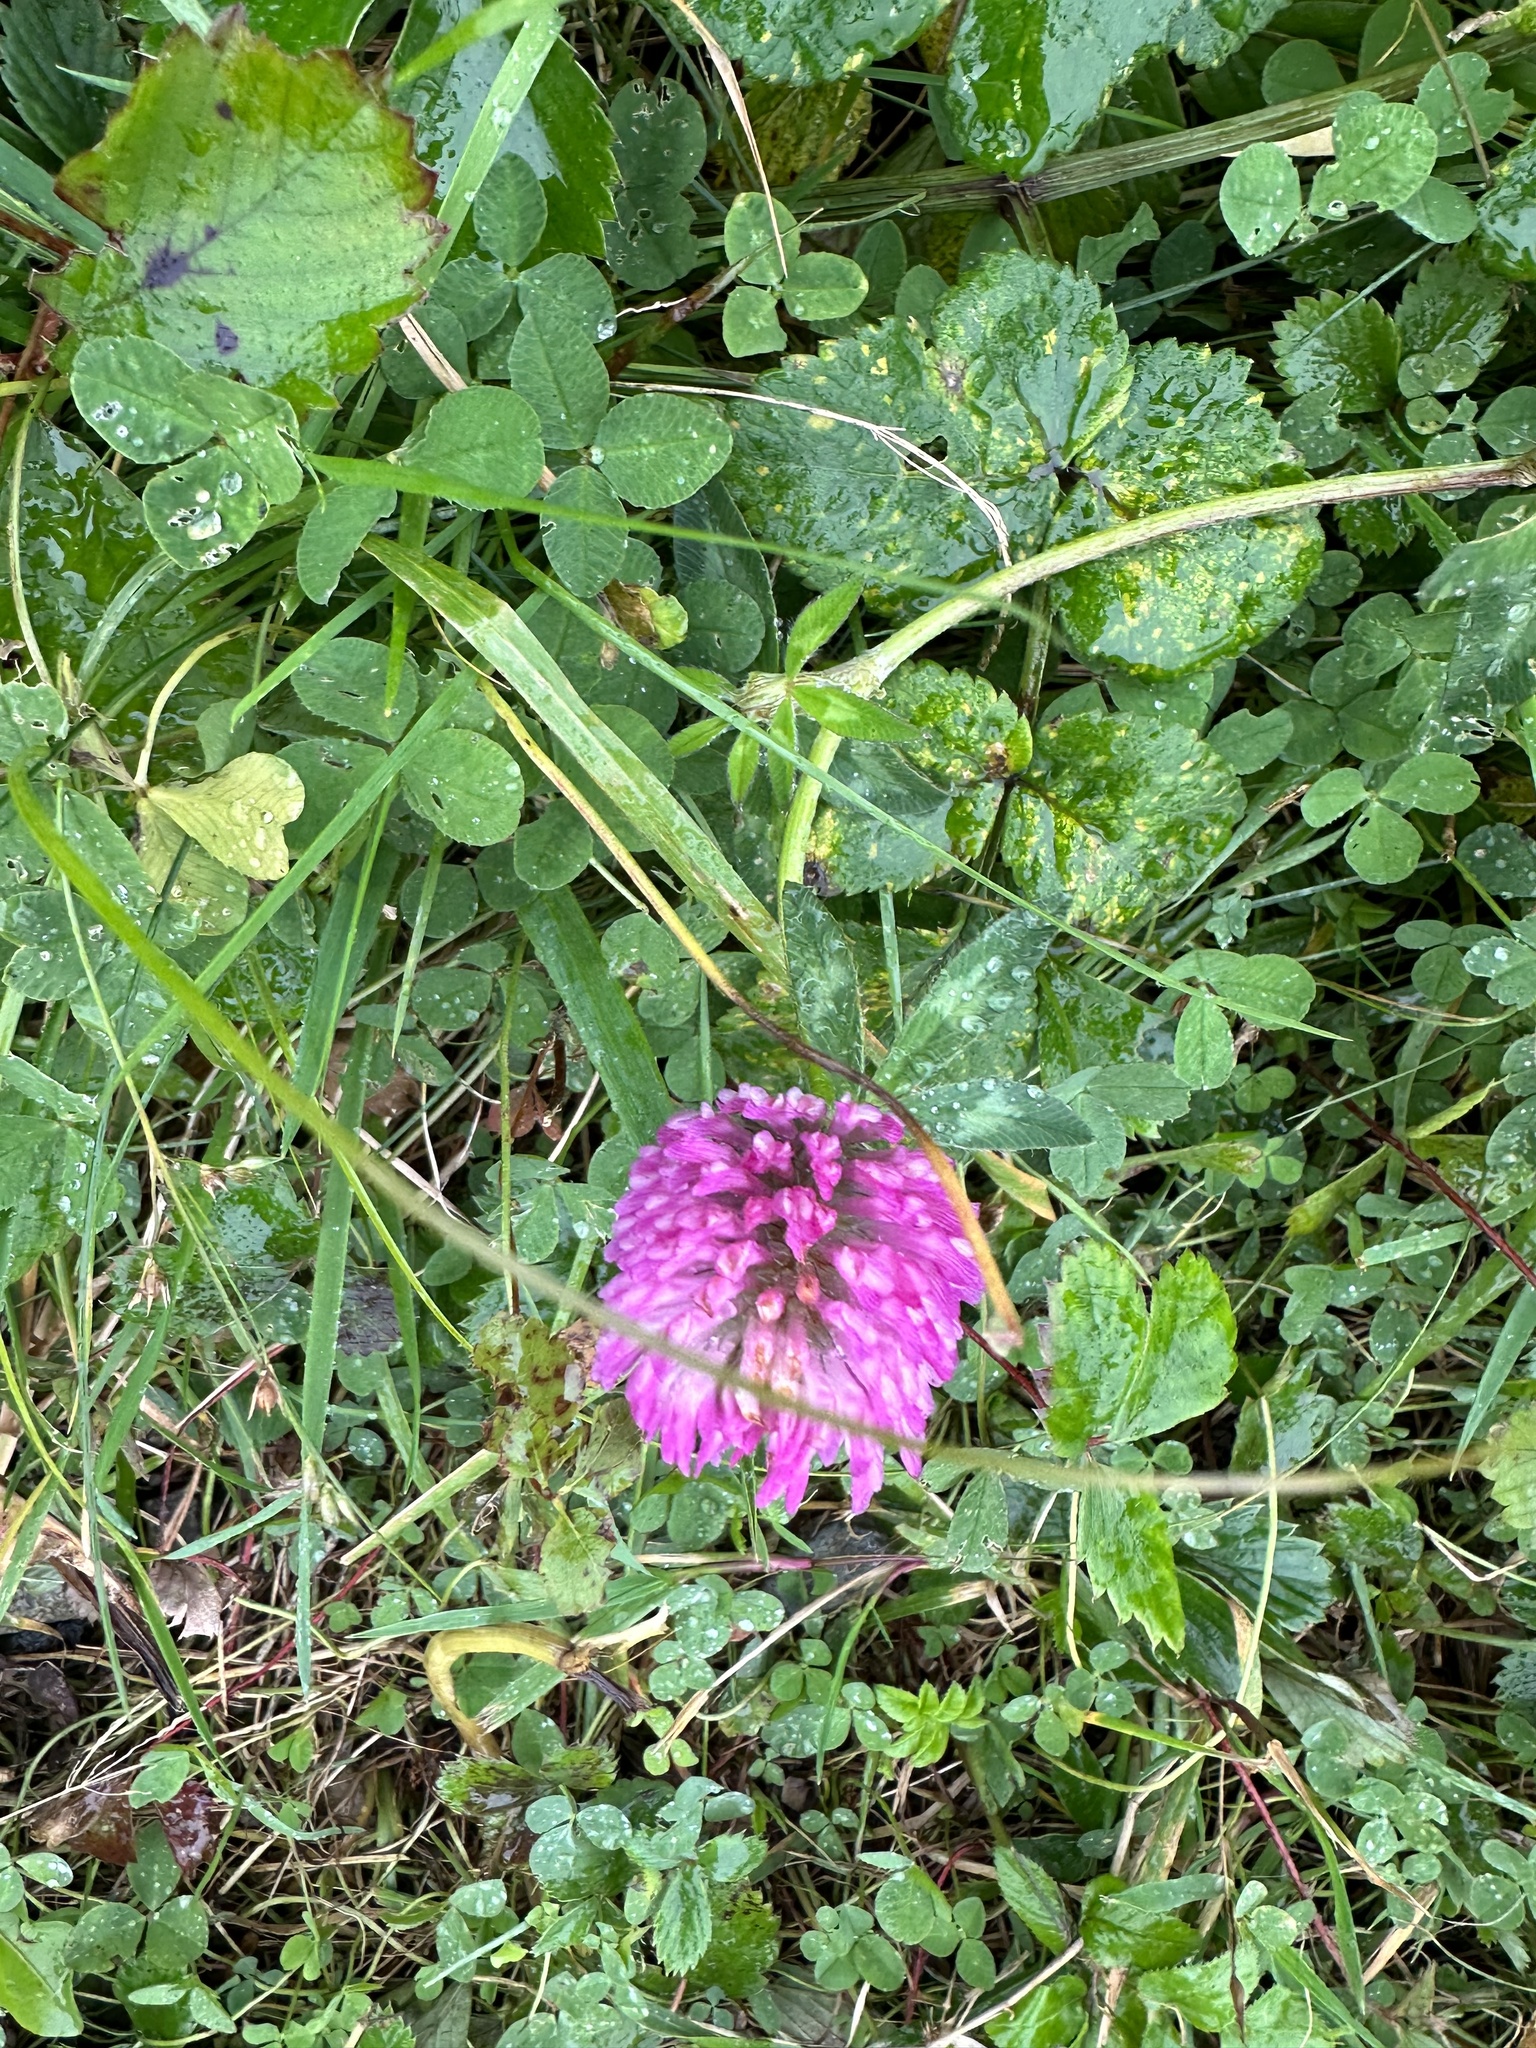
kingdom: Plantae
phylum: Tracheophyta
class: Magnoliopsida
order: Fabales
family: Fabaceae
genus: Trifolium
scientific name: Trifolium pratense
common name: Red clover
